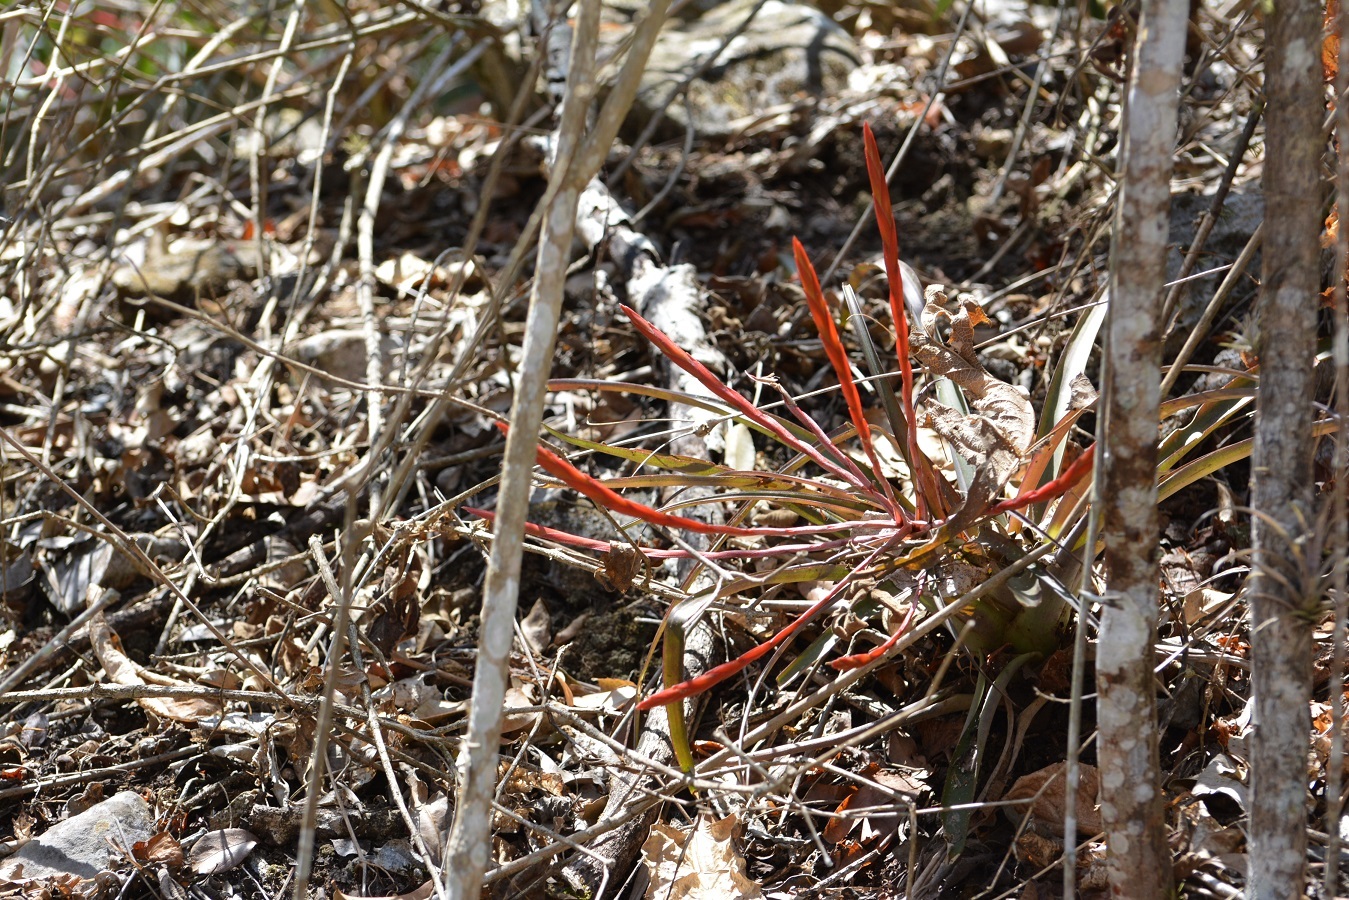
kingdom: Plantae
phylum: Tracheophyta
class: Liliopsida
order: Poales
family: Bromeliaceae
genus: Tillandsia
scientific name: Tillandsia flabellata
